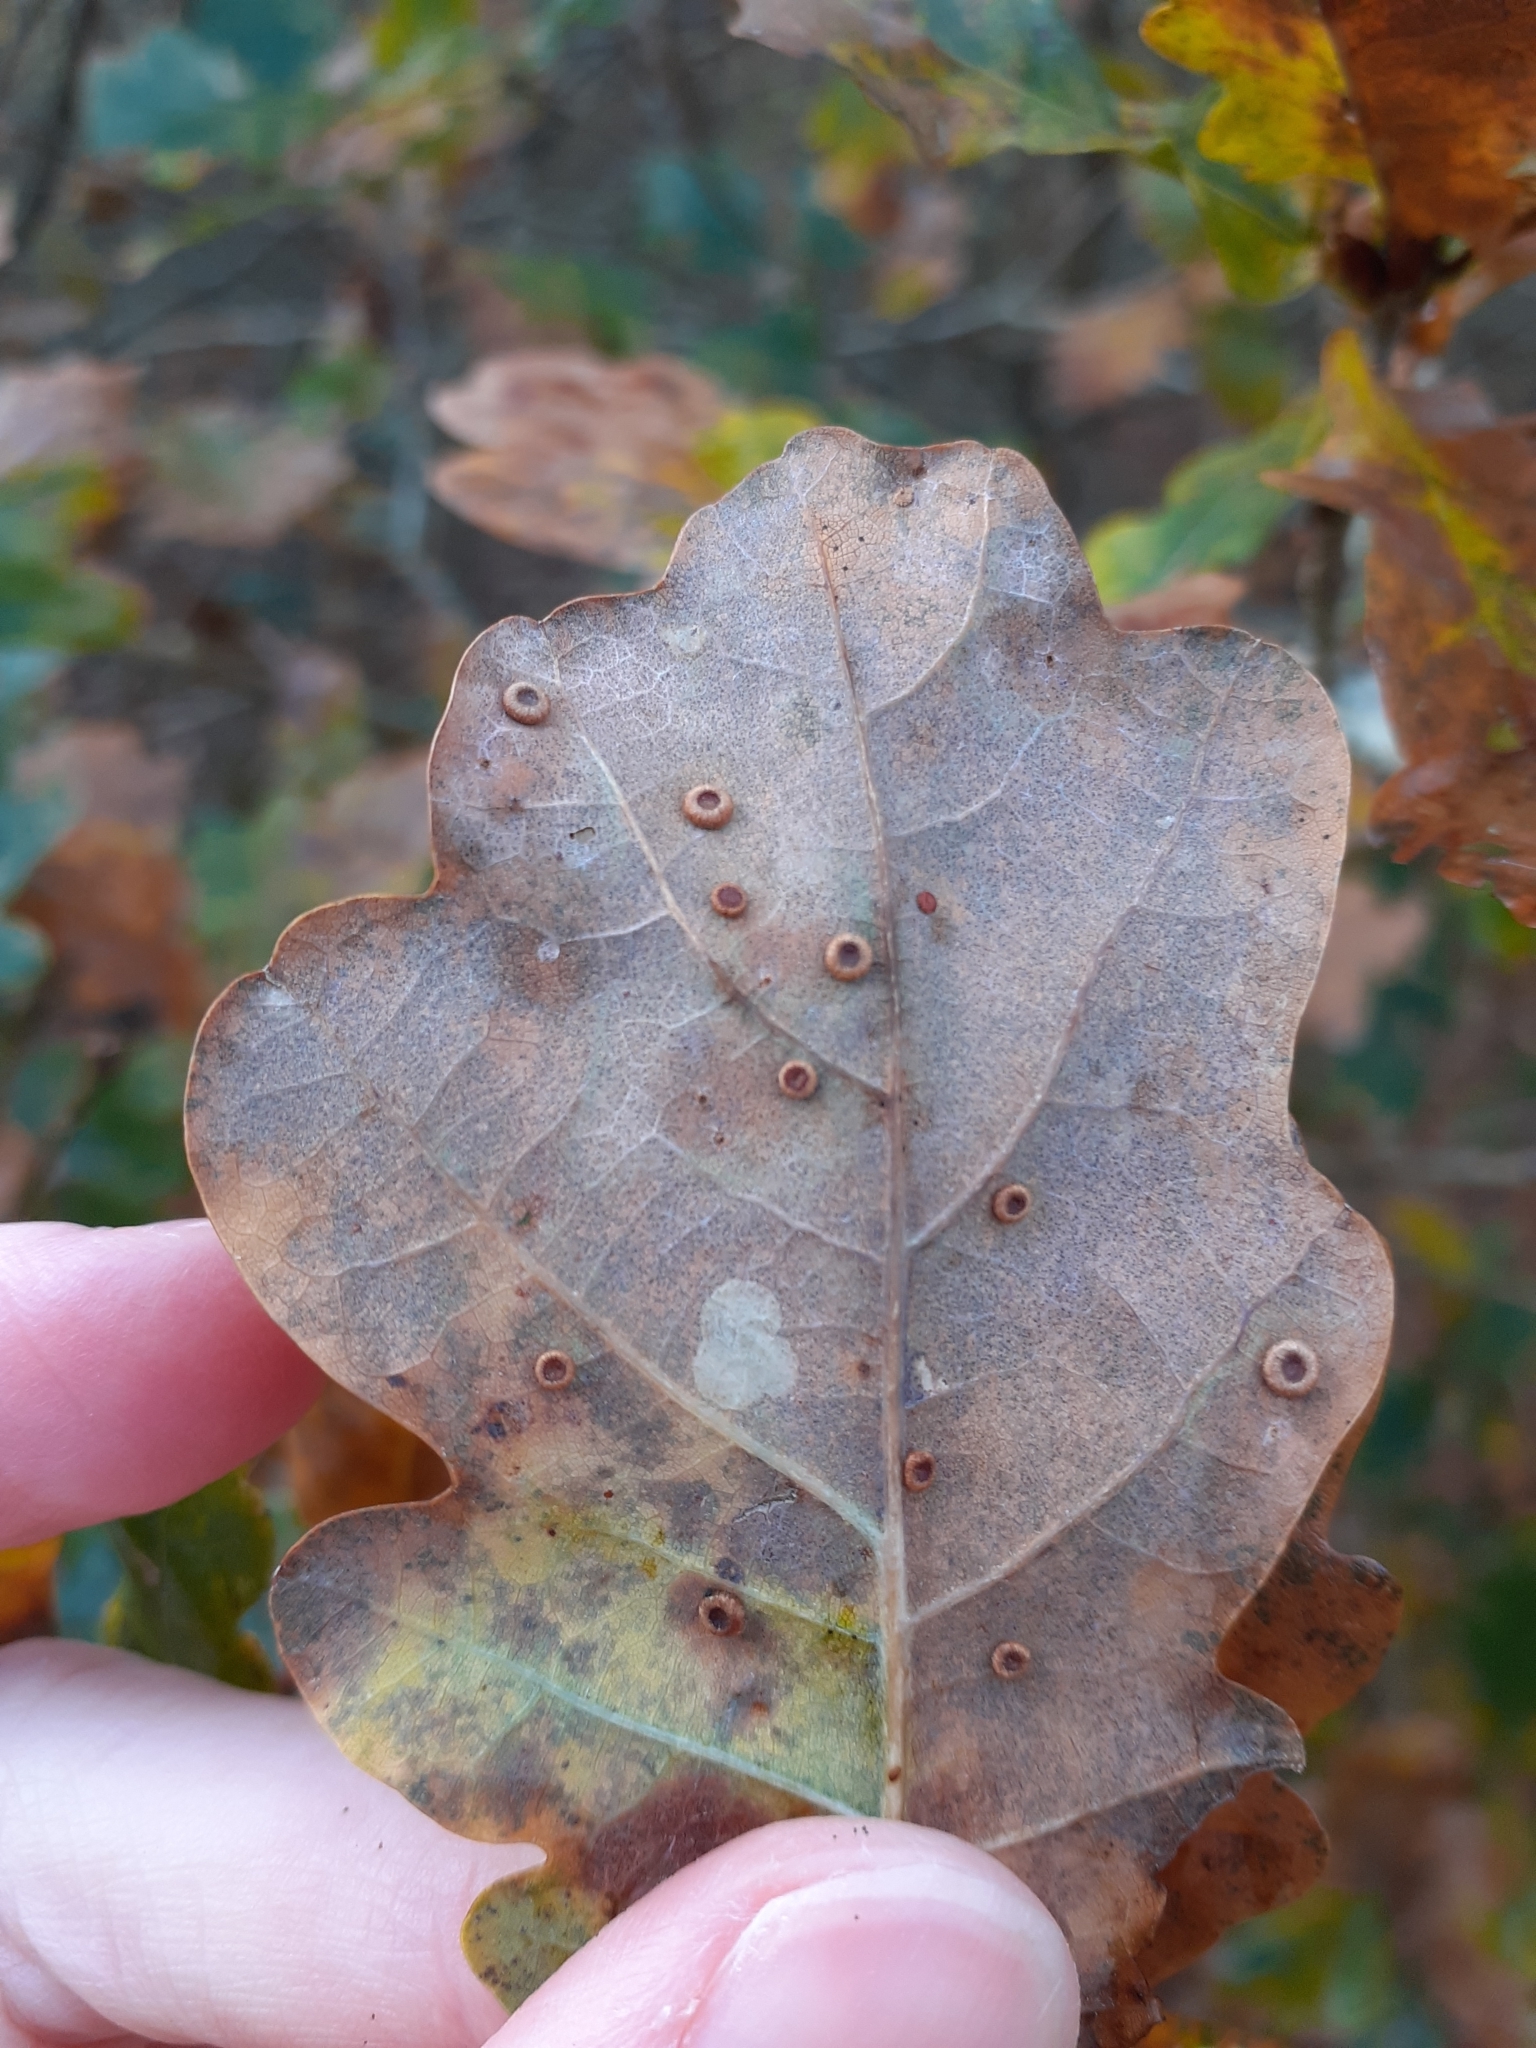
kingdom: Animalia
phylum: Arthropoda
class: Insecta
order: Hymenoptera
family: Cynipidae
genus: Neuroterus
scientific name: Neuroterus numismalis
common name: Silk-button spangle gall
